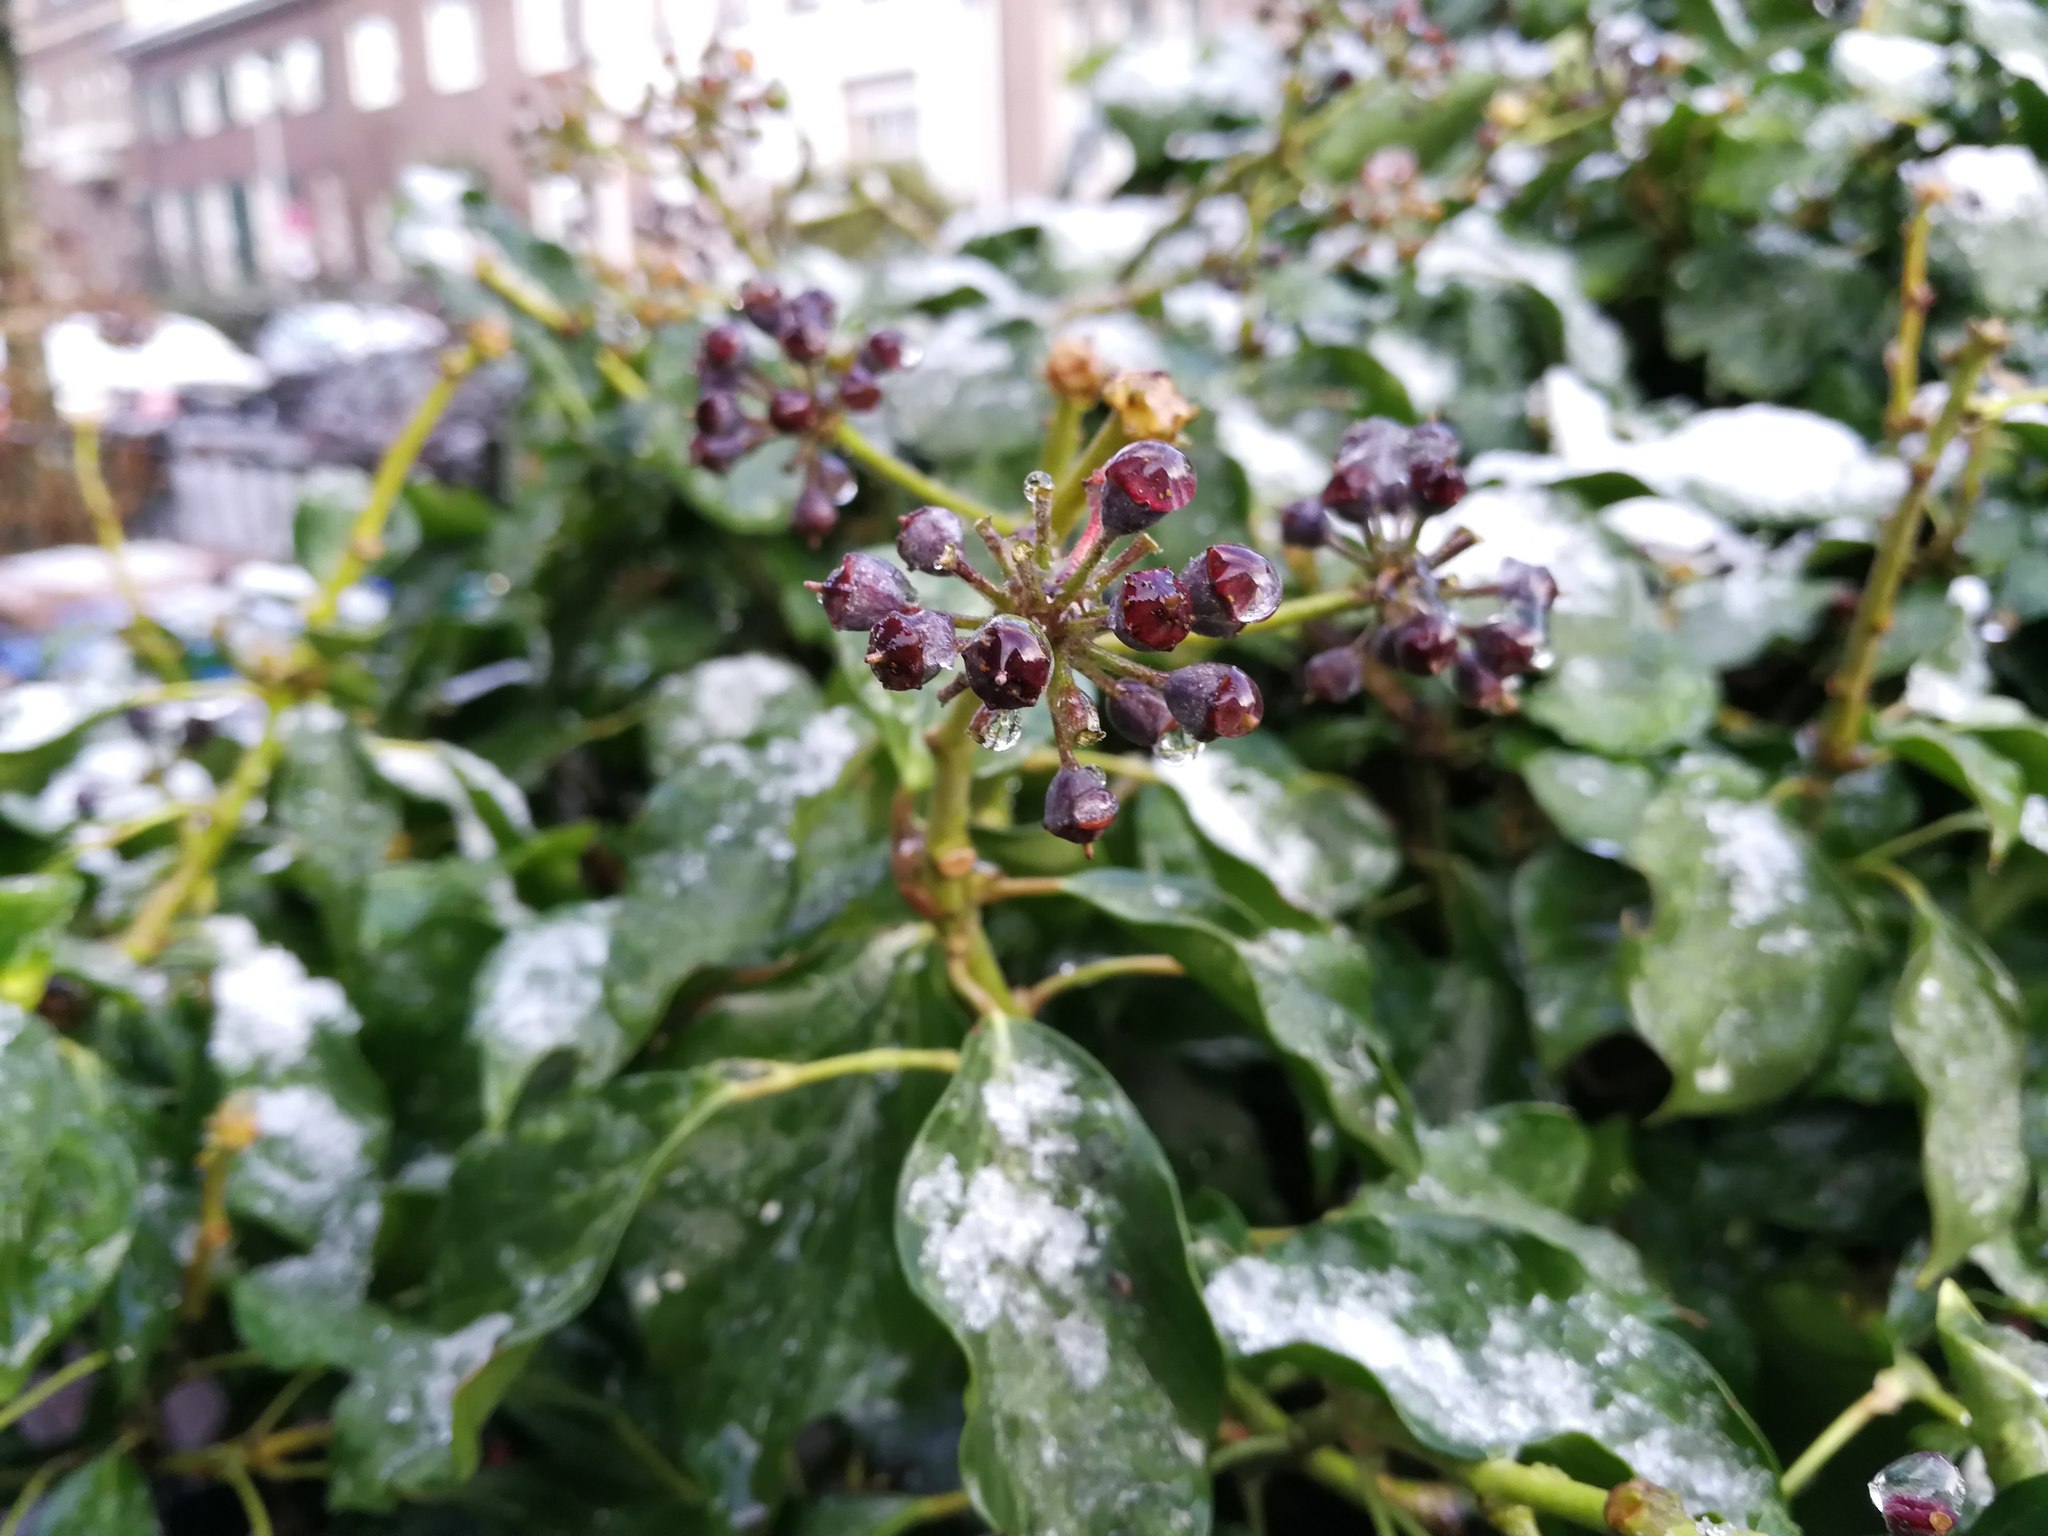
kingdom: Plantae
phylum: Tracheophyta
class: Magnoliopsida
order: Apiales
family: Araliaceae
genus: Hedera
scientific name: Hedera helix
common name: Ivy
